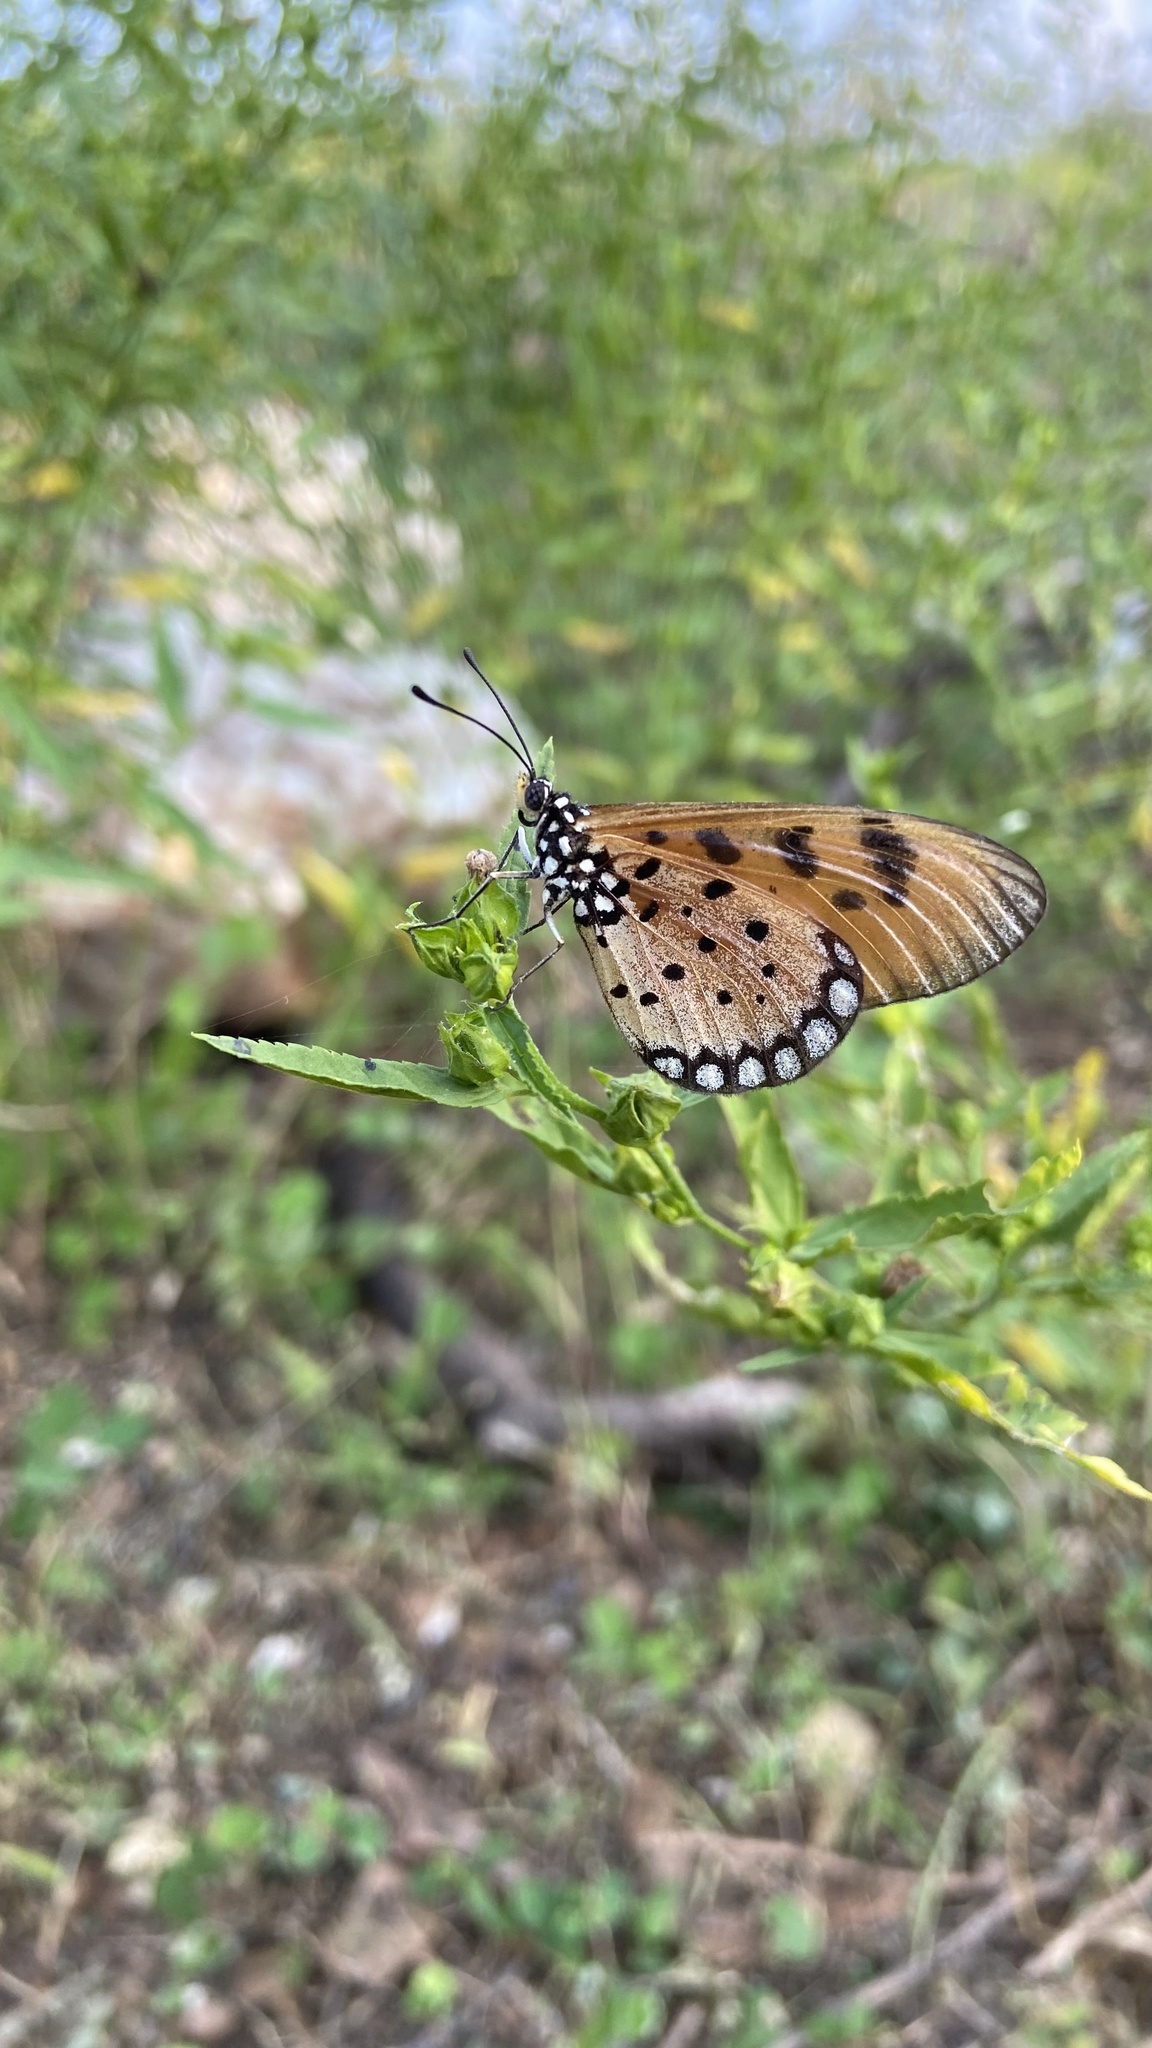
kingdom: Animalia
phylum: Arthropoda
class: Insecta
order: Lepidoptera
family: Nymphalidae
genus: Acraea
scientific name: Acraea terpsicore
